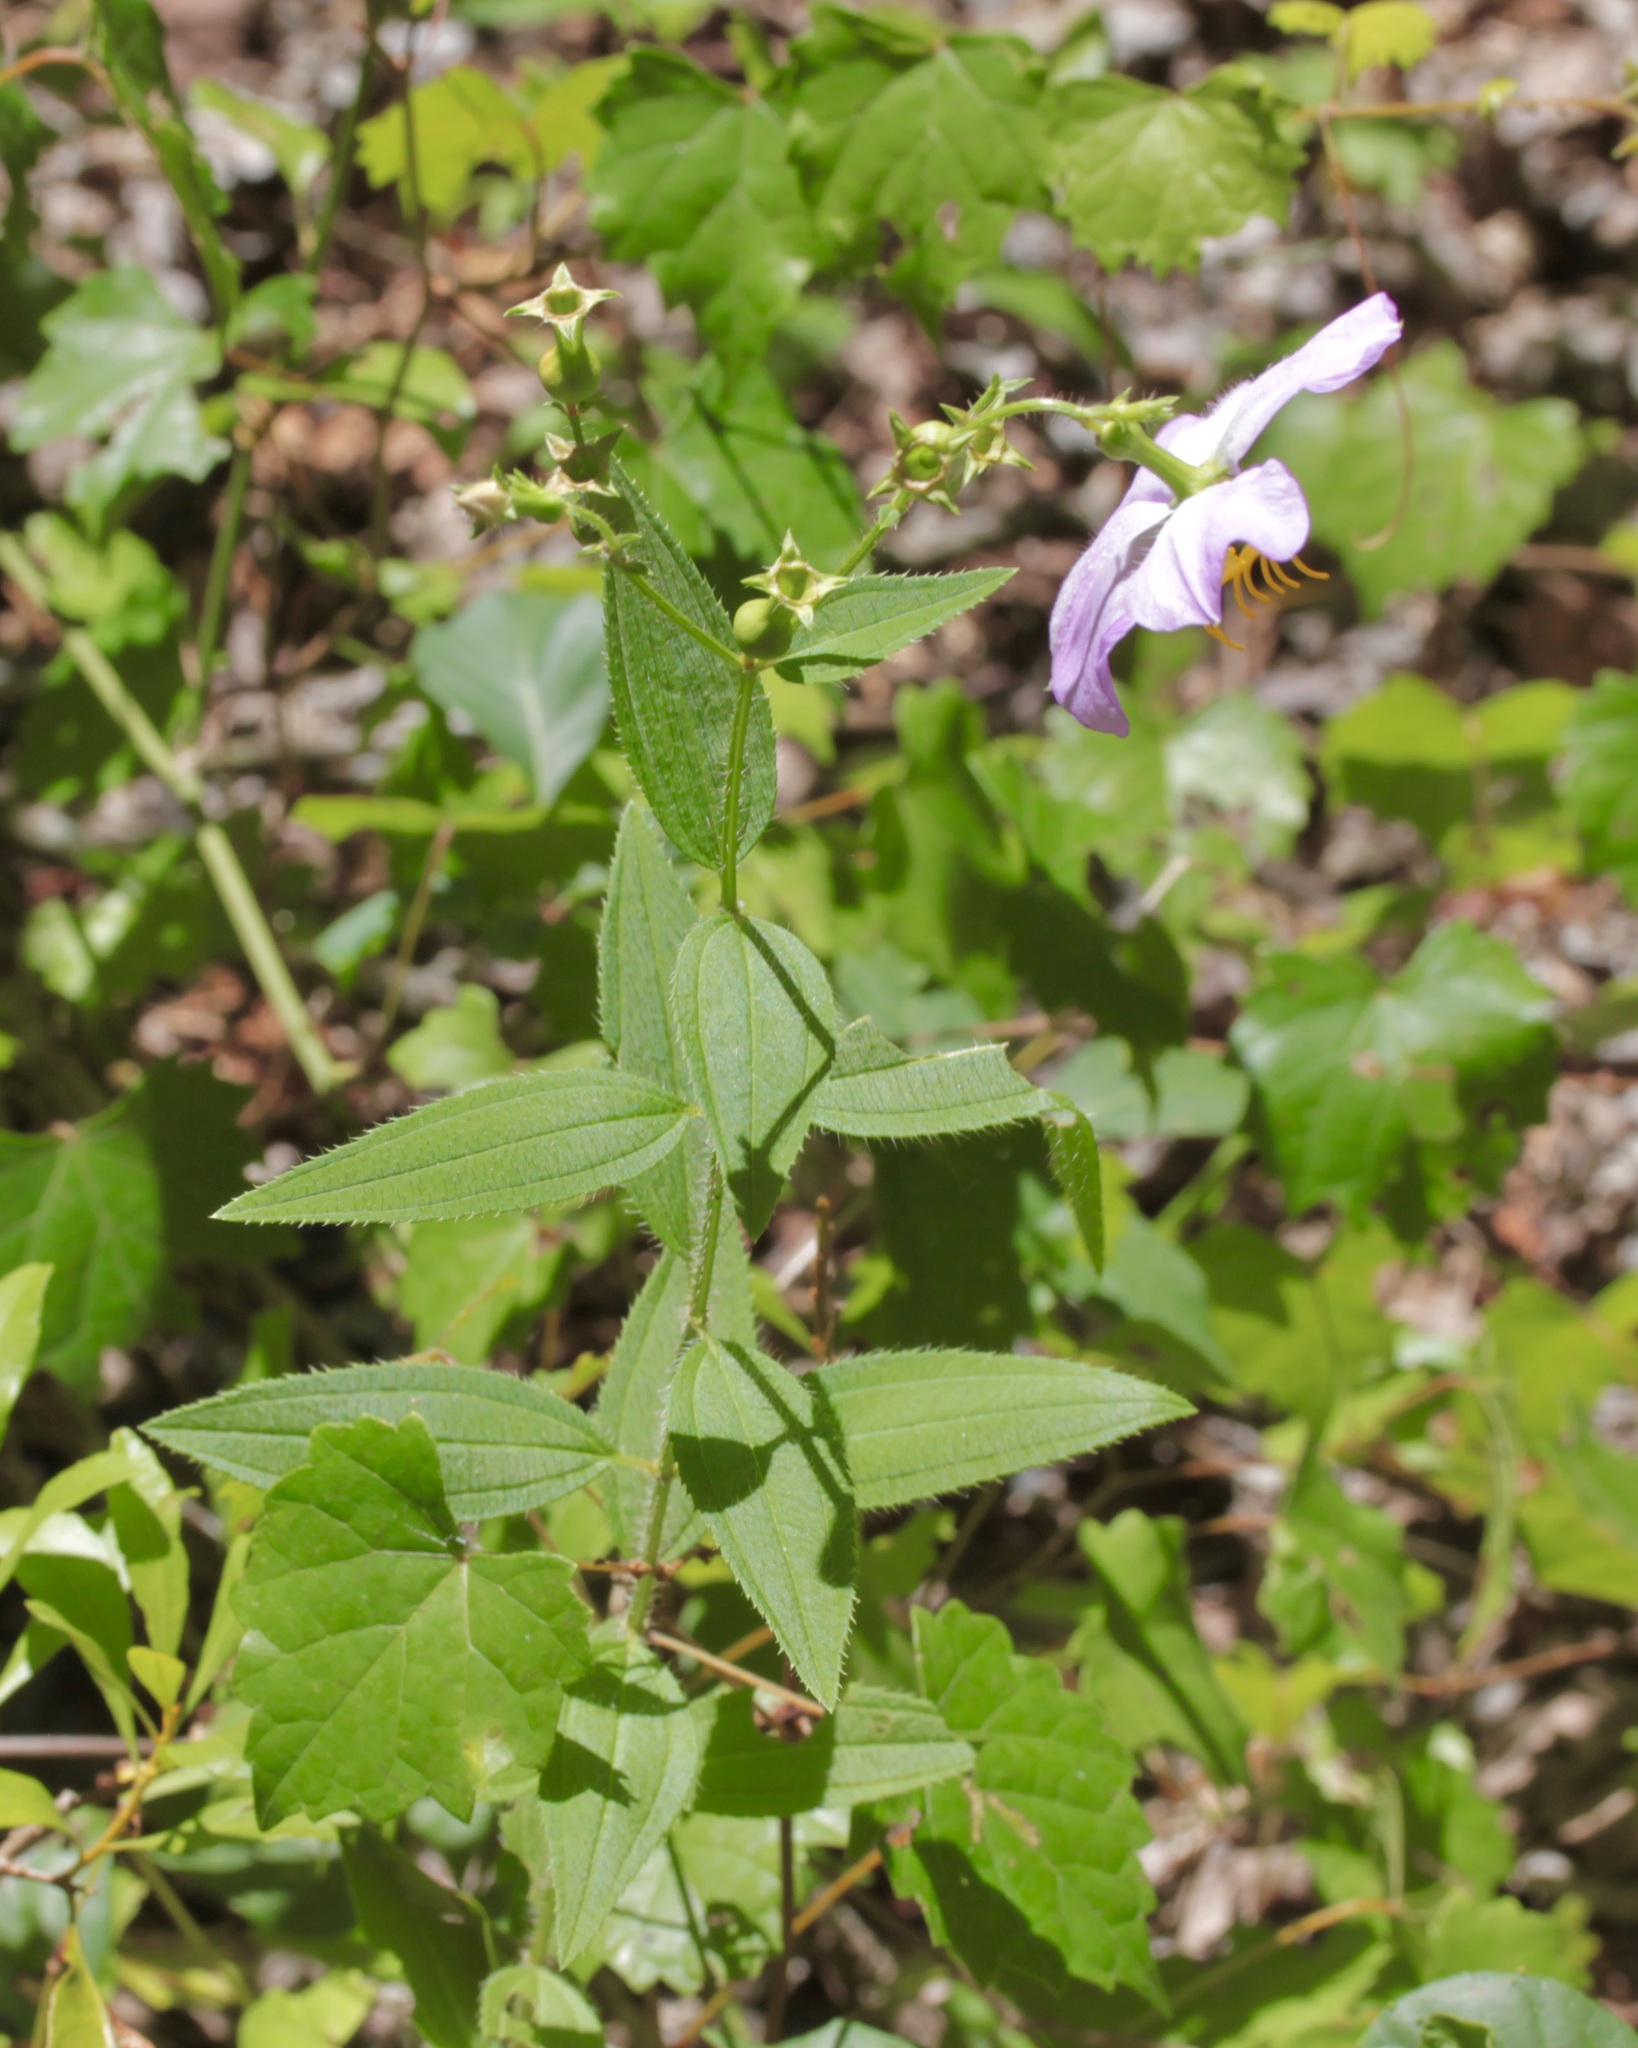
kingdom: Plantae
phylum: Tracheophyta
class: Magnoliopsida
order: Myrtales
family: Melastomataceae
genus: Rhexia
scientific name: Rhexia mariana
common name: Dull meadow-pitcher
